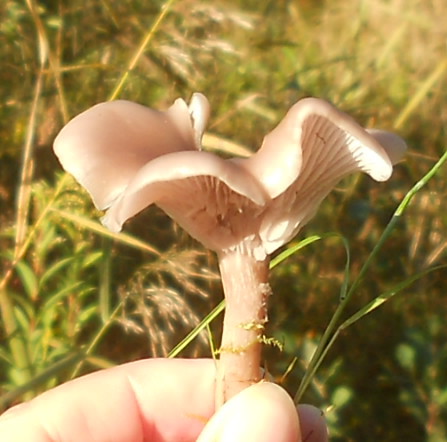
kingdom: Fungi
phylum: Basidiomycota
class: Agaricomycetes
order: Agaricales
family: Tricholomataceae
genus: Collybia
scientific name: Collybia
